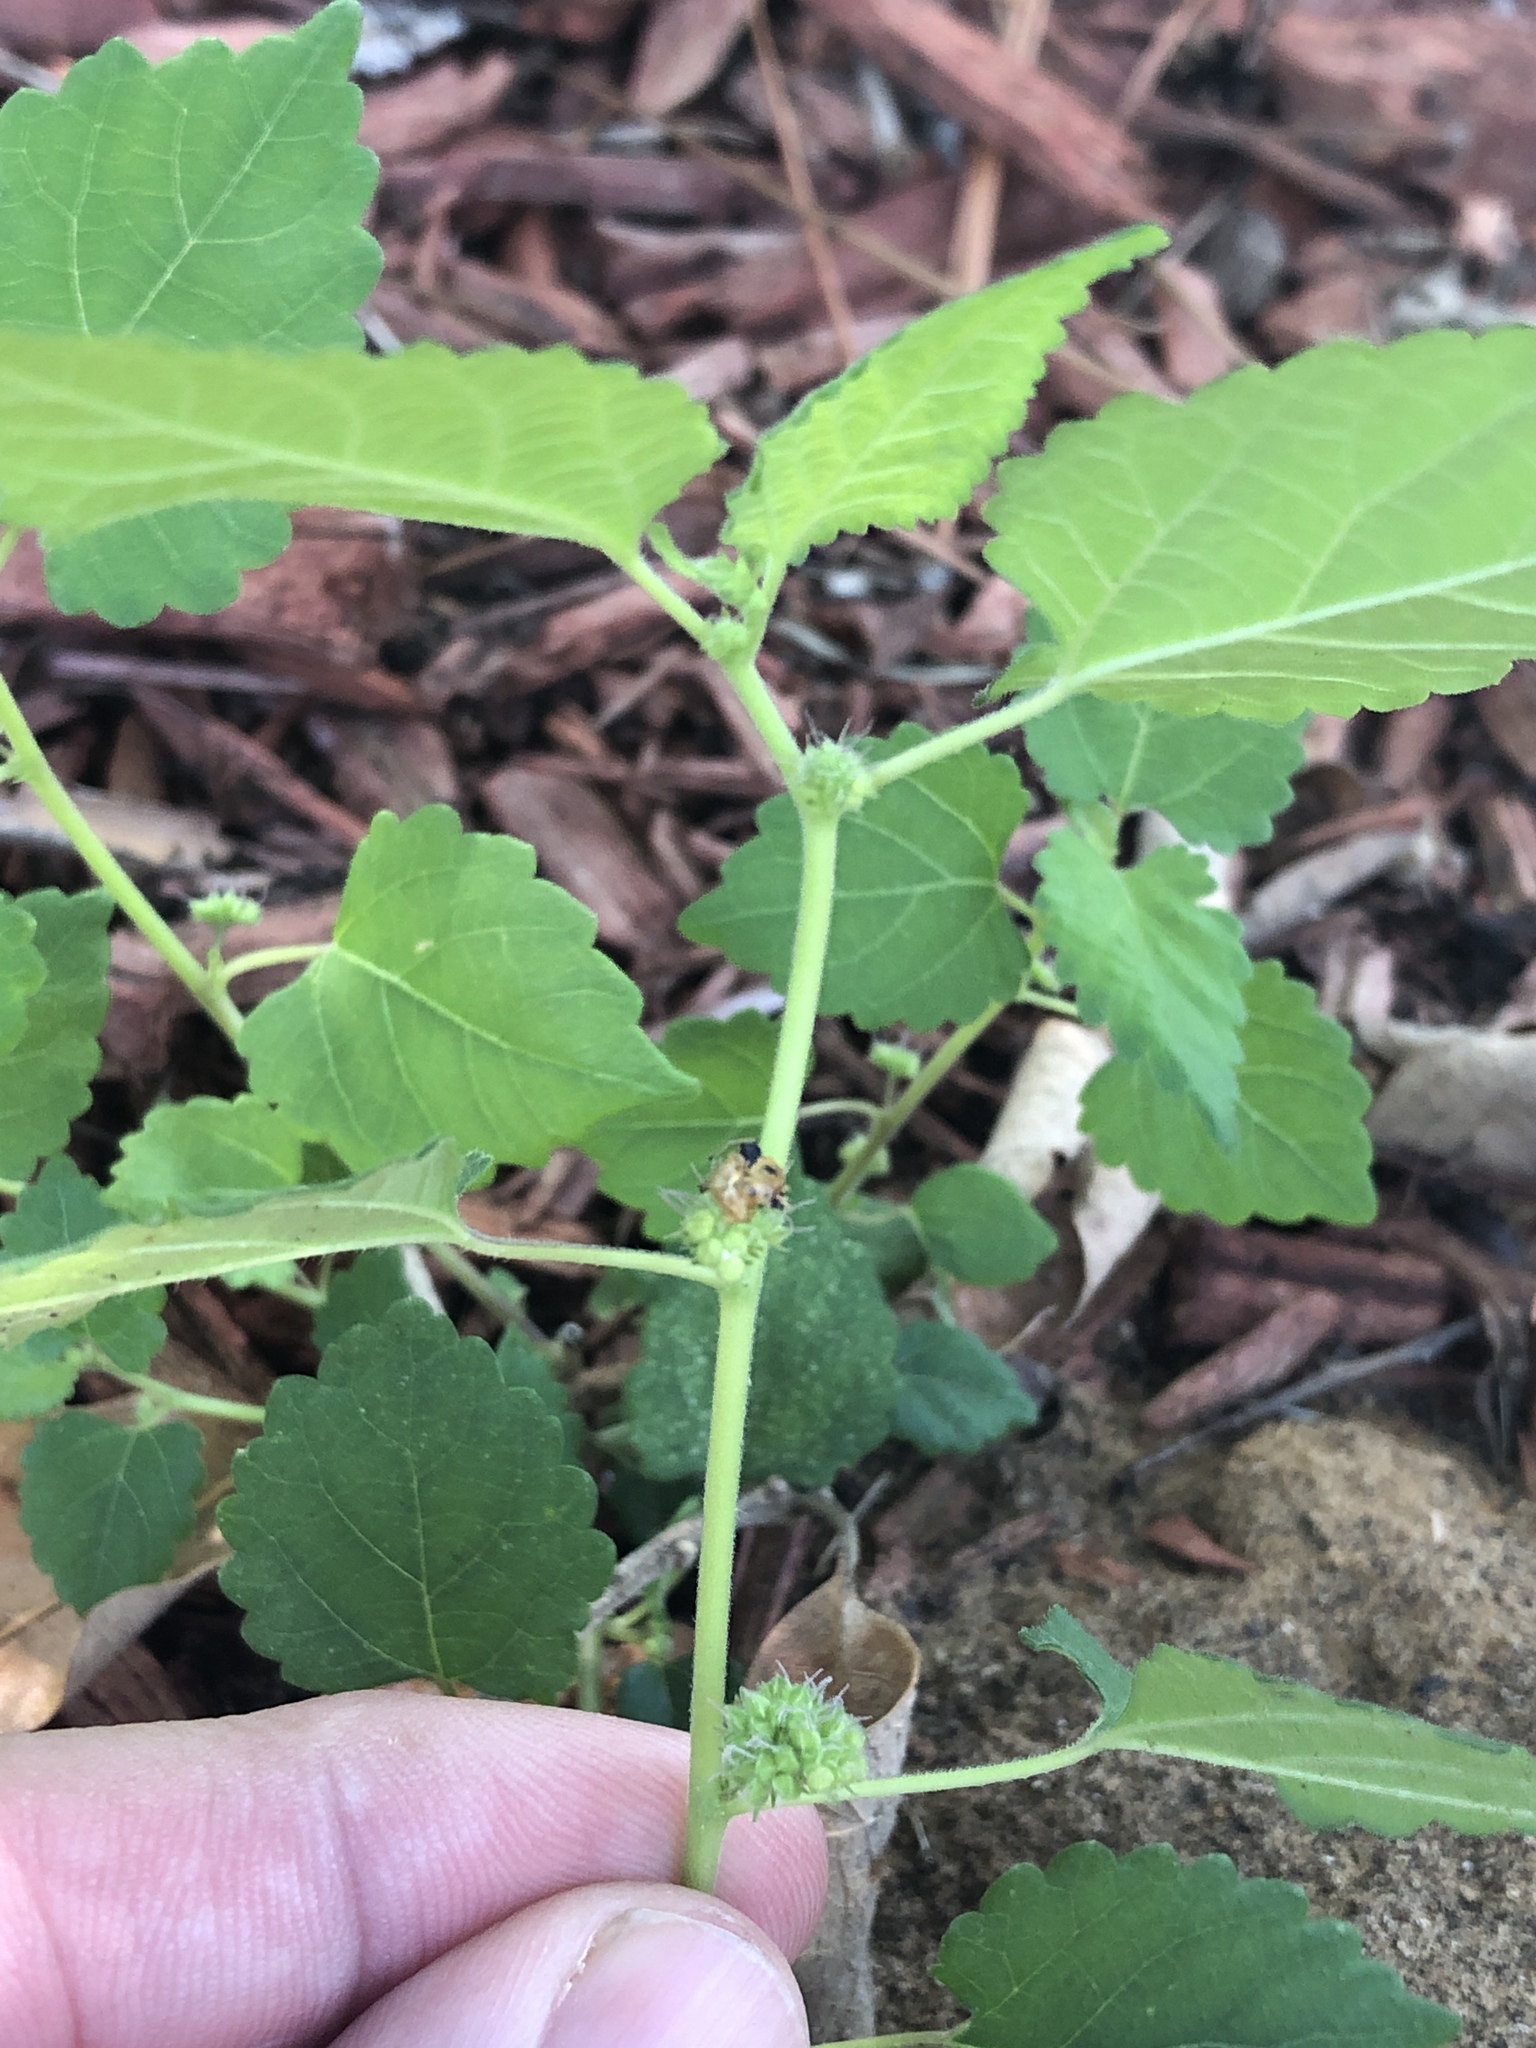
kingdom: Plantae
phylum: Tracheophyta
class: Magnoliopsida
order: Rosales
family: Moraceae
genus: Fatoua
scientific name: Fatoua villosa
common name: Hairy crabweed
